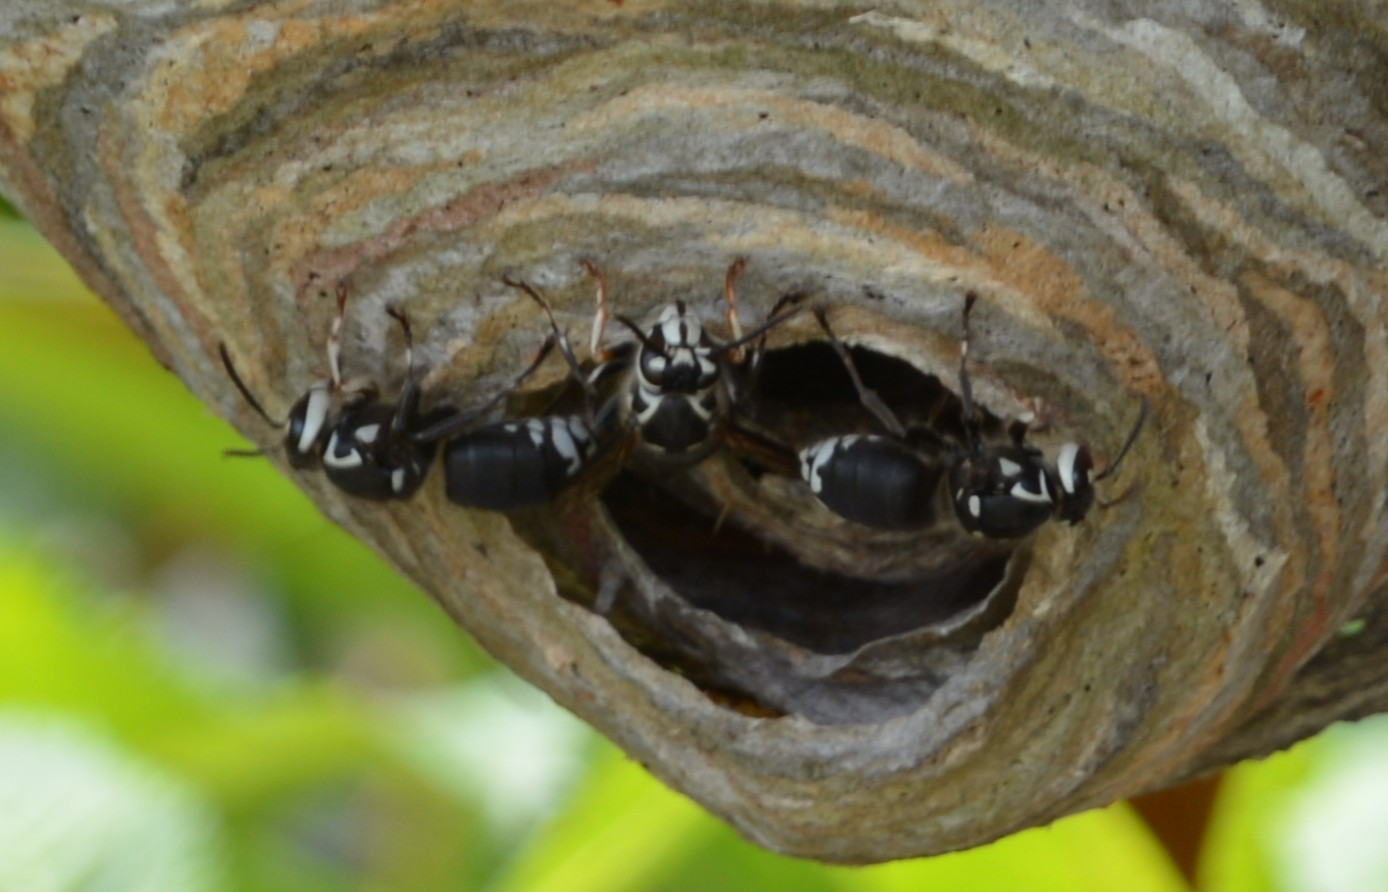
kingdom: Animalia
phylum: Arthropoda
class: Insecta
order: Hymenoptera
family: Vespidae
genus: Dolichovespula
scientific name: Dolichovespula maculata
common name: Bald-faced hornet
